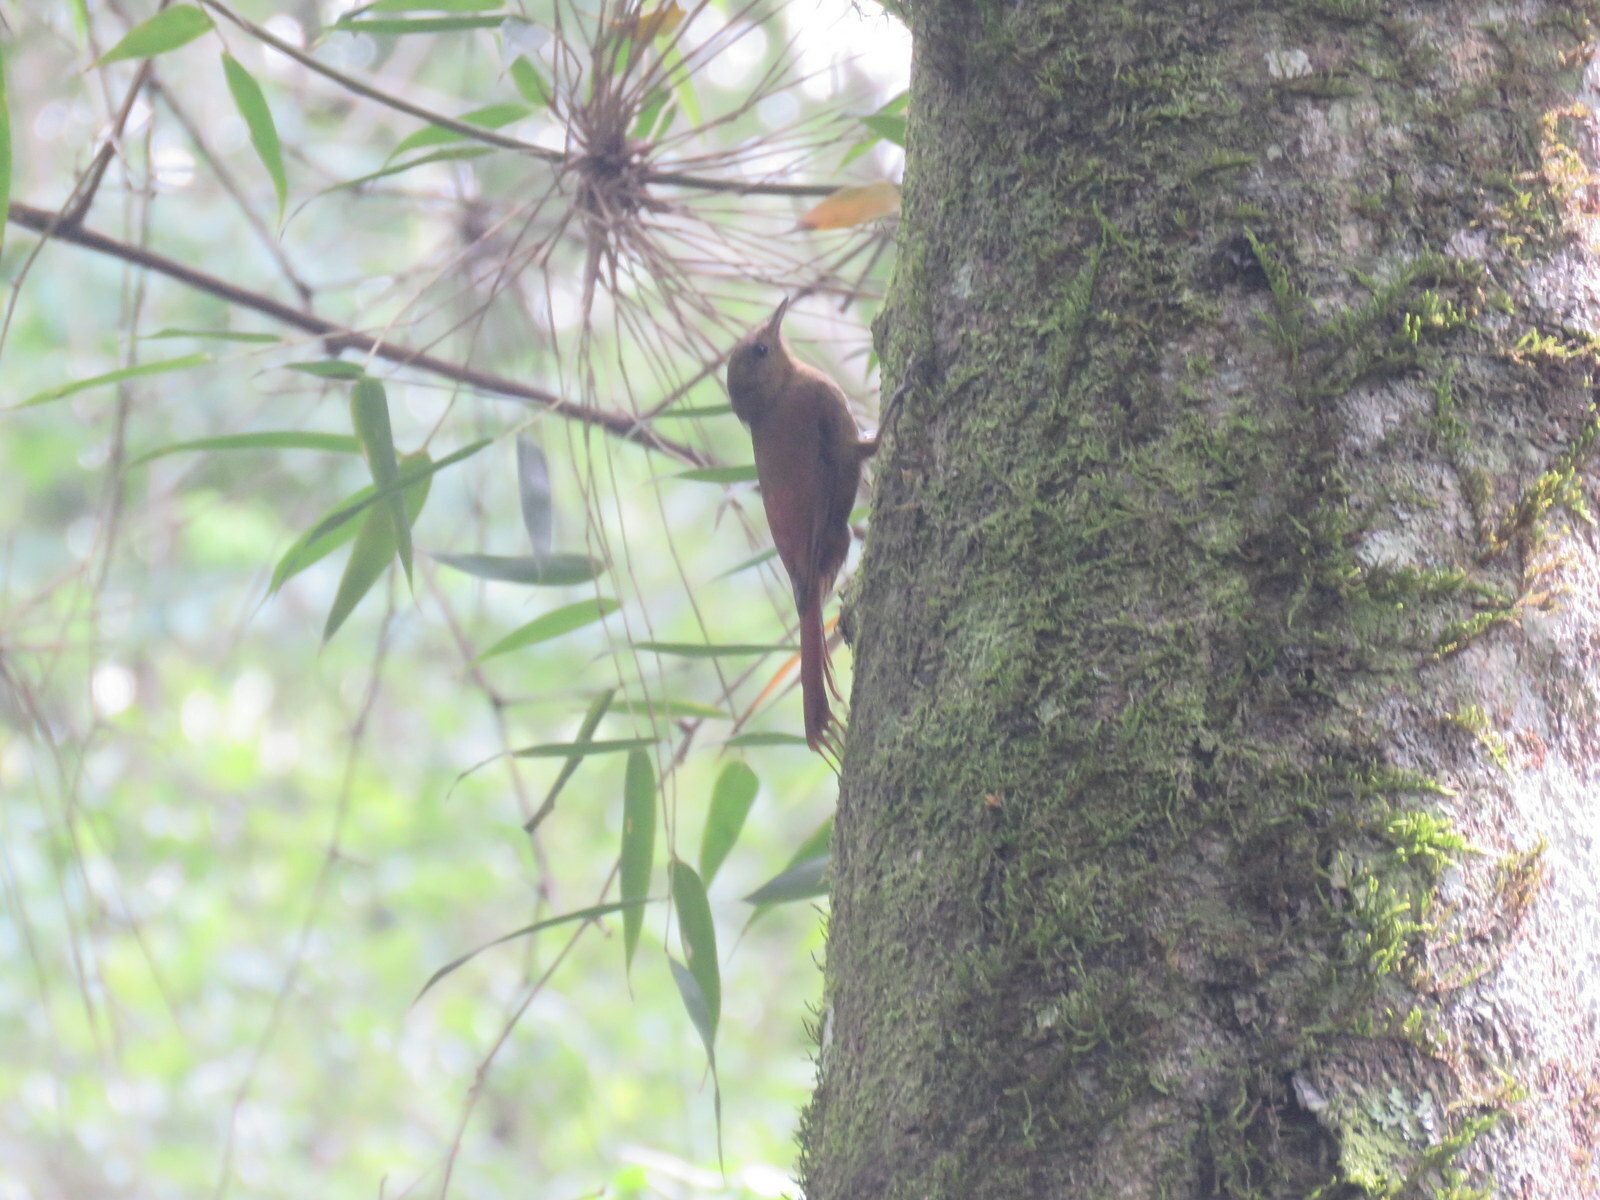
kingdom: Animalia
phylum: Chordata
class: Aves
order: Passeriformes
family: Furnariidae
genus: Sittasomus
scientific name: Sittasomus griseicapillus
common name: Olivaceous woodcreeper
